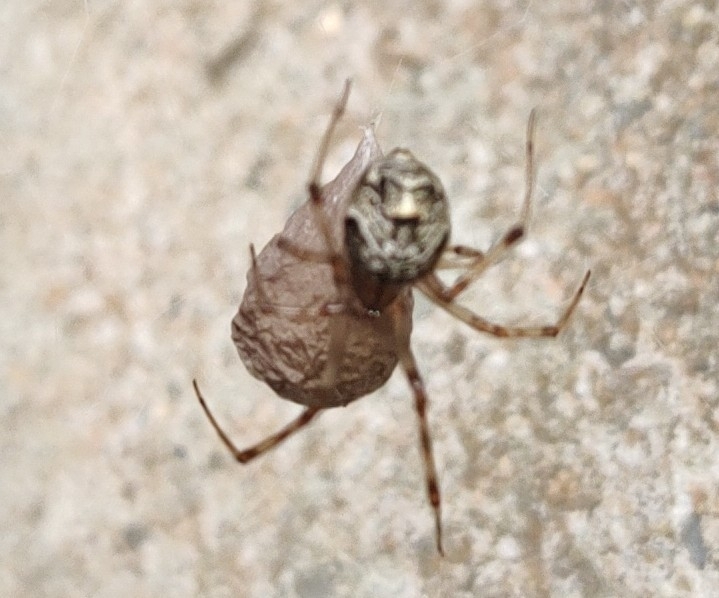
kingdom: Animalia
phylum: Arthropoda
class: Arachnida
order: Araneae
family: Theridiidae
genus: Parasteatoda
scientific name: Parasteatoda tepidariorum
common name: Common house spider
